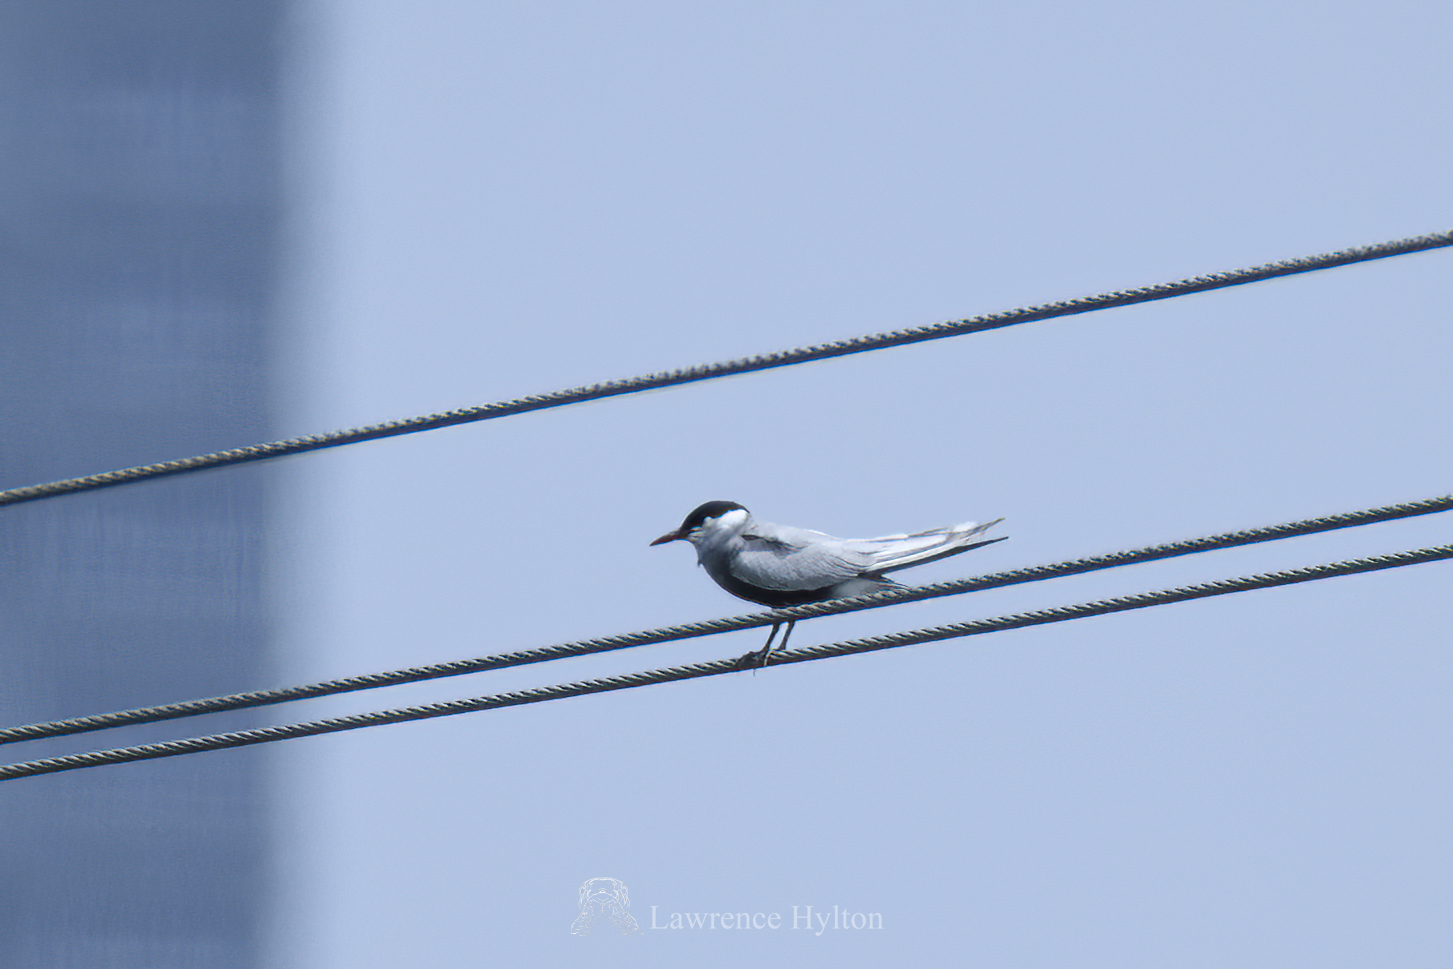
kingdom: Animalia
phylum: Chordata
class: Aves
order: Charadriiformes
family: Laridae
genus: Chlidonias
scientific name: Chlidonias hybrida
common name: Whiskered tern
